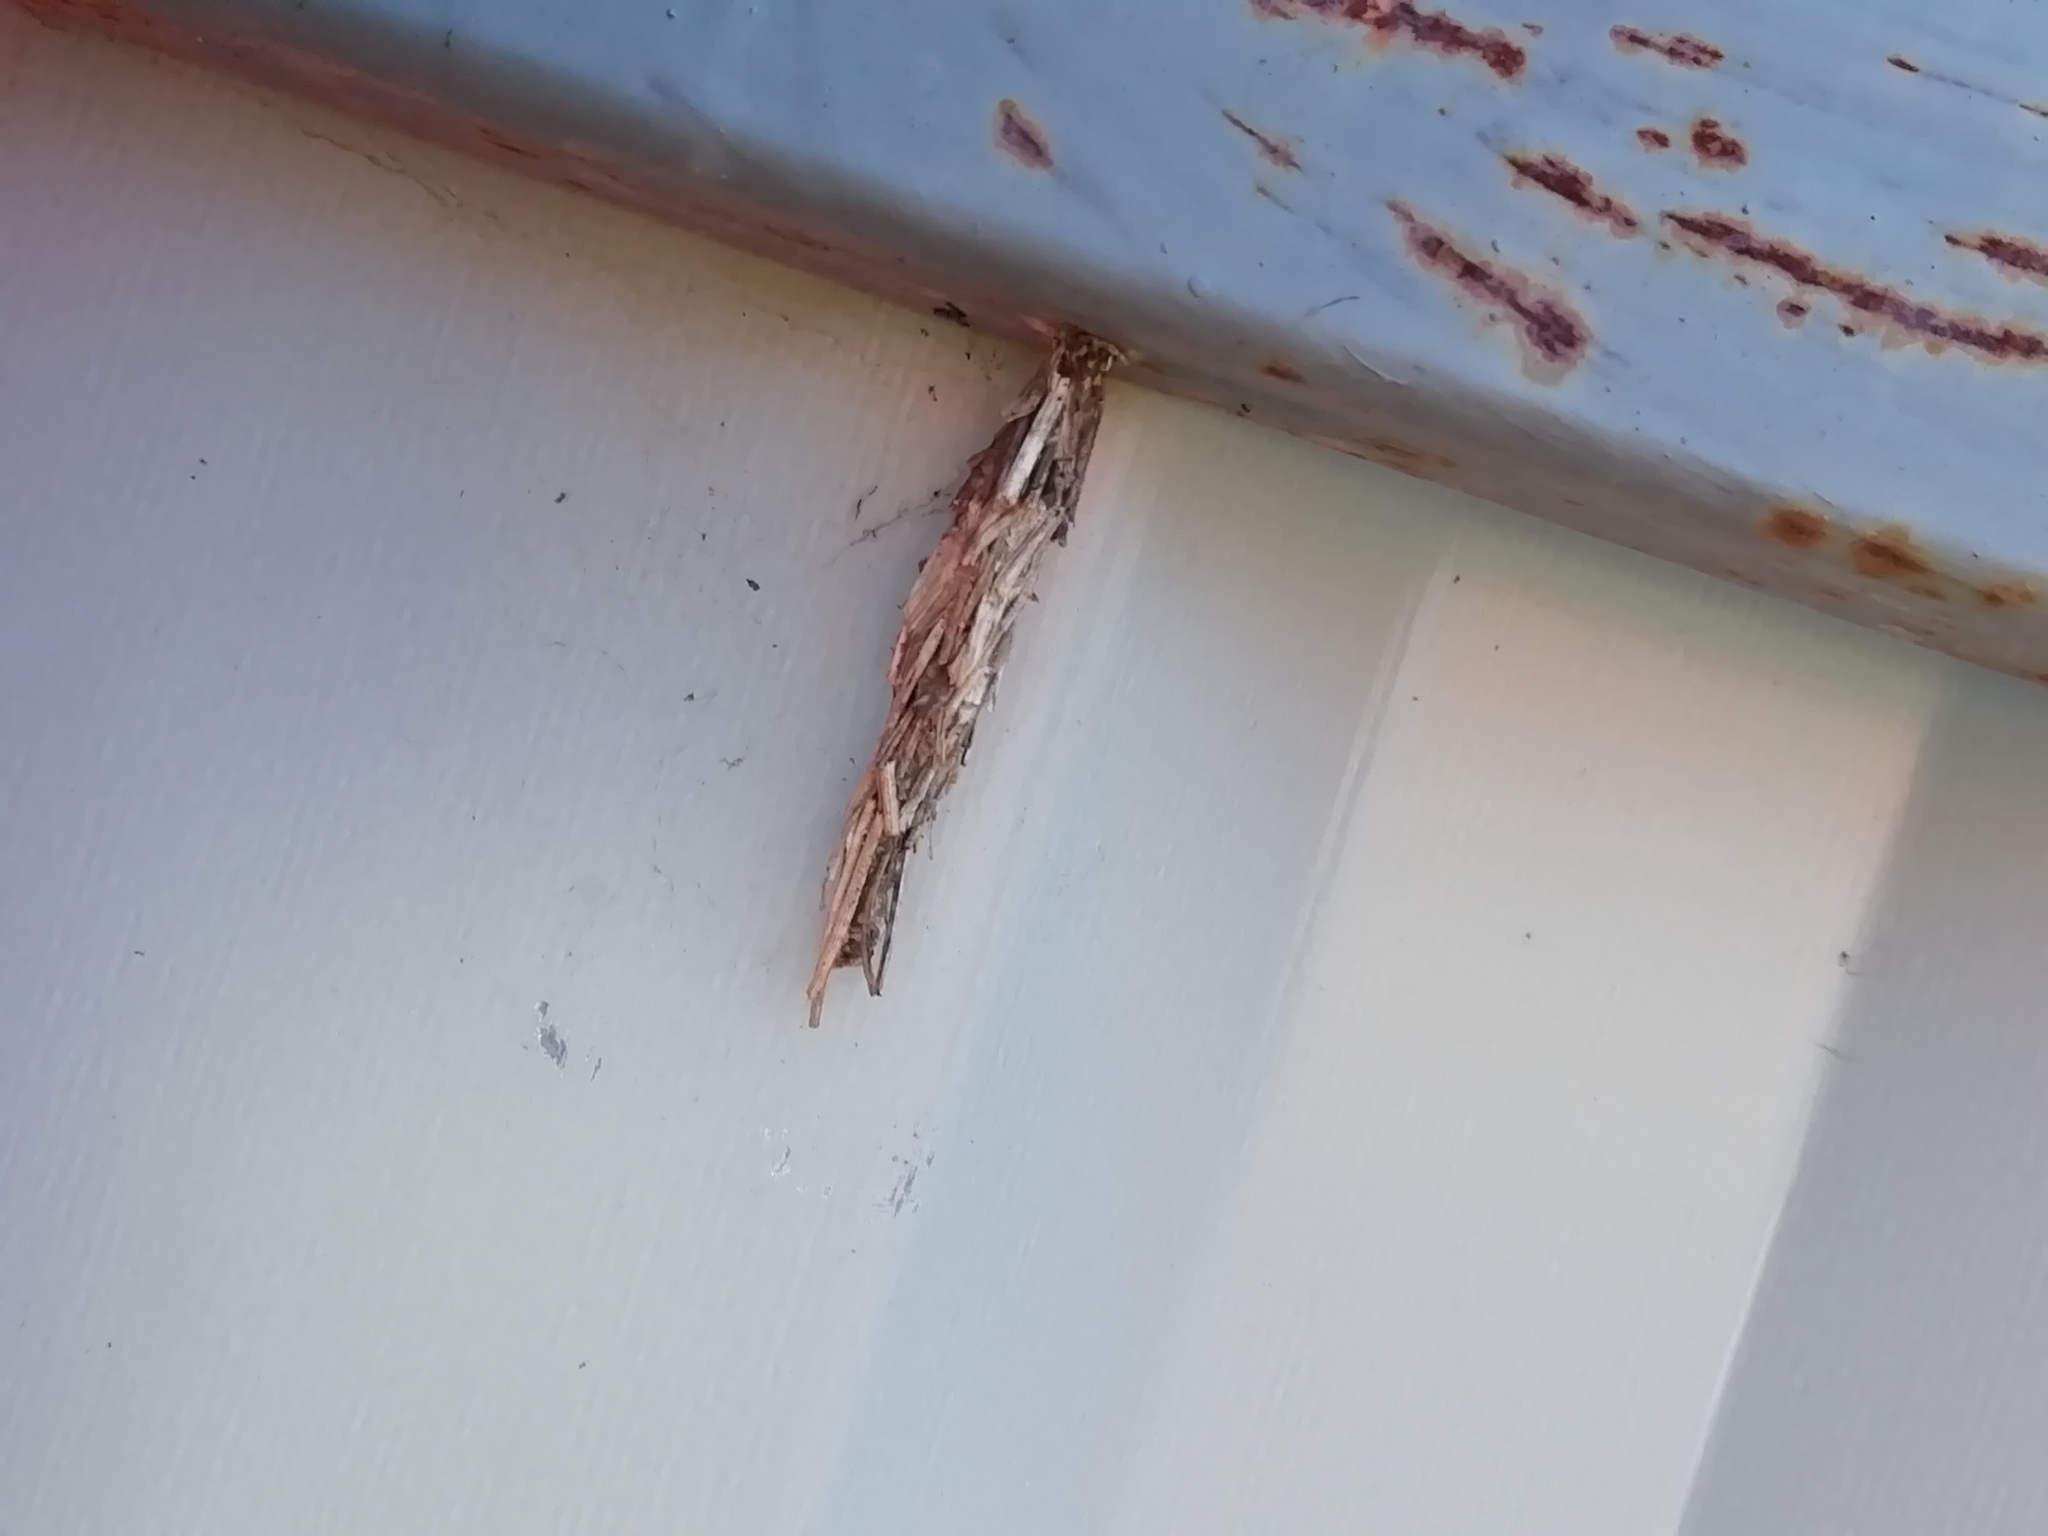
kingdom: Animalia
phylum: Arthropoda
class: Insecta
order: Lepidoptera
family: Psychidae
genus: Canephora
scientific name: Canephora hirsuta
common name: Hairy sweep
